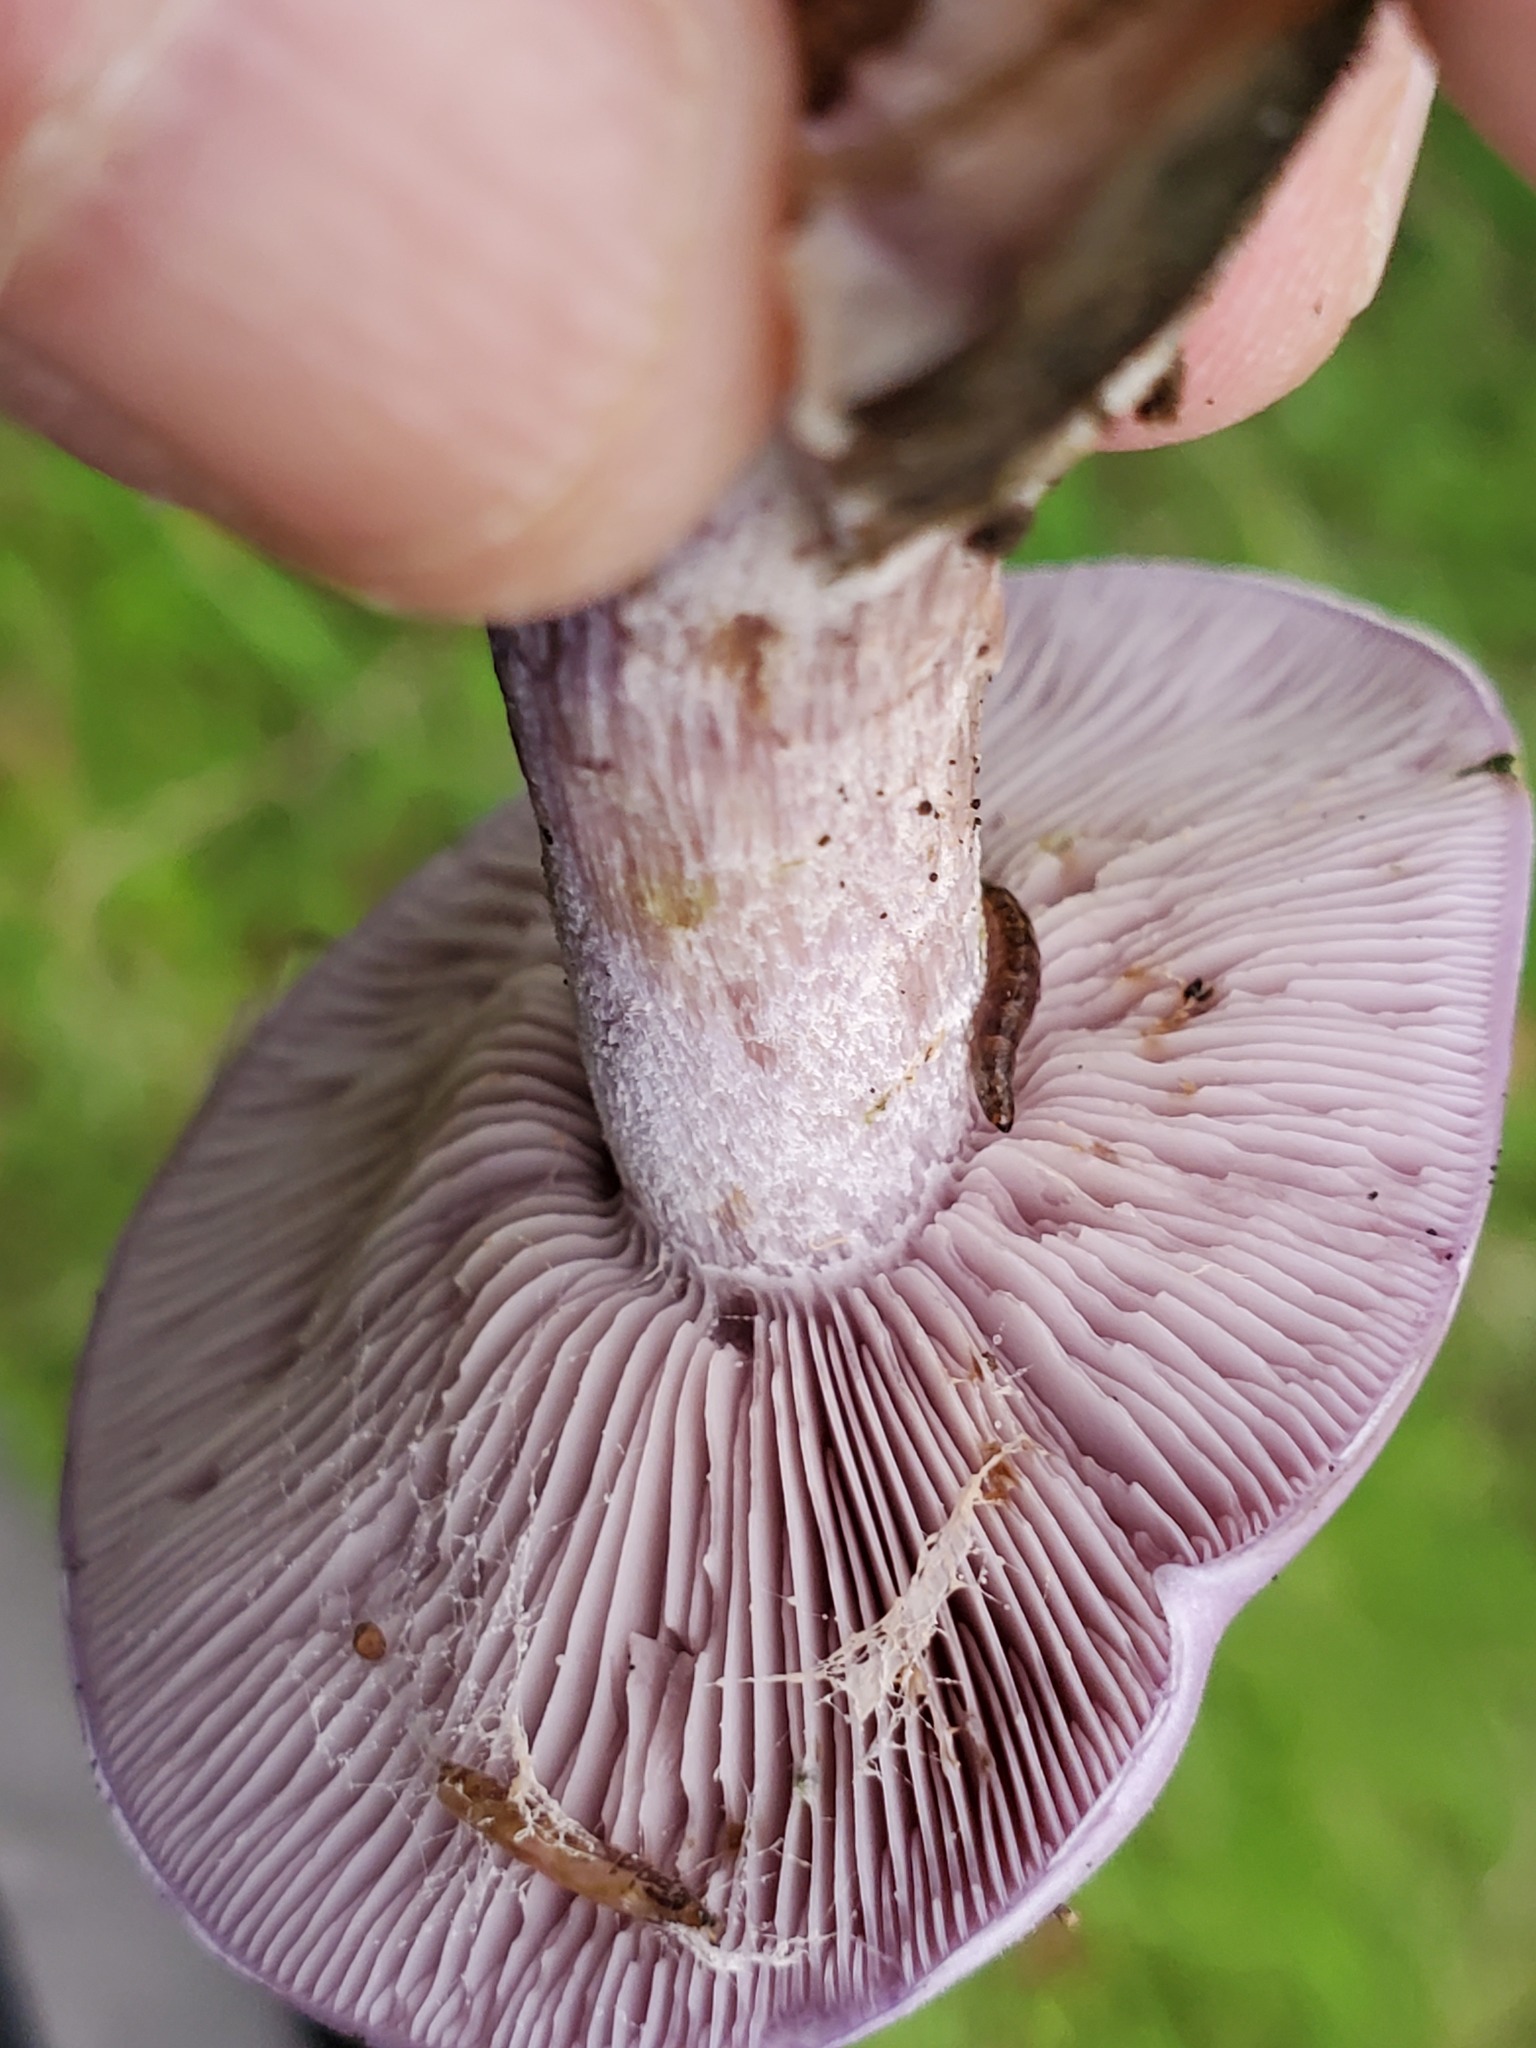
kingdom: Fungi
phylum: Basidiomycota
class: Agaricomycetes
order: Agaricales
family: Tricholomataceae
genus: Collybia
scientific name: Collybia
